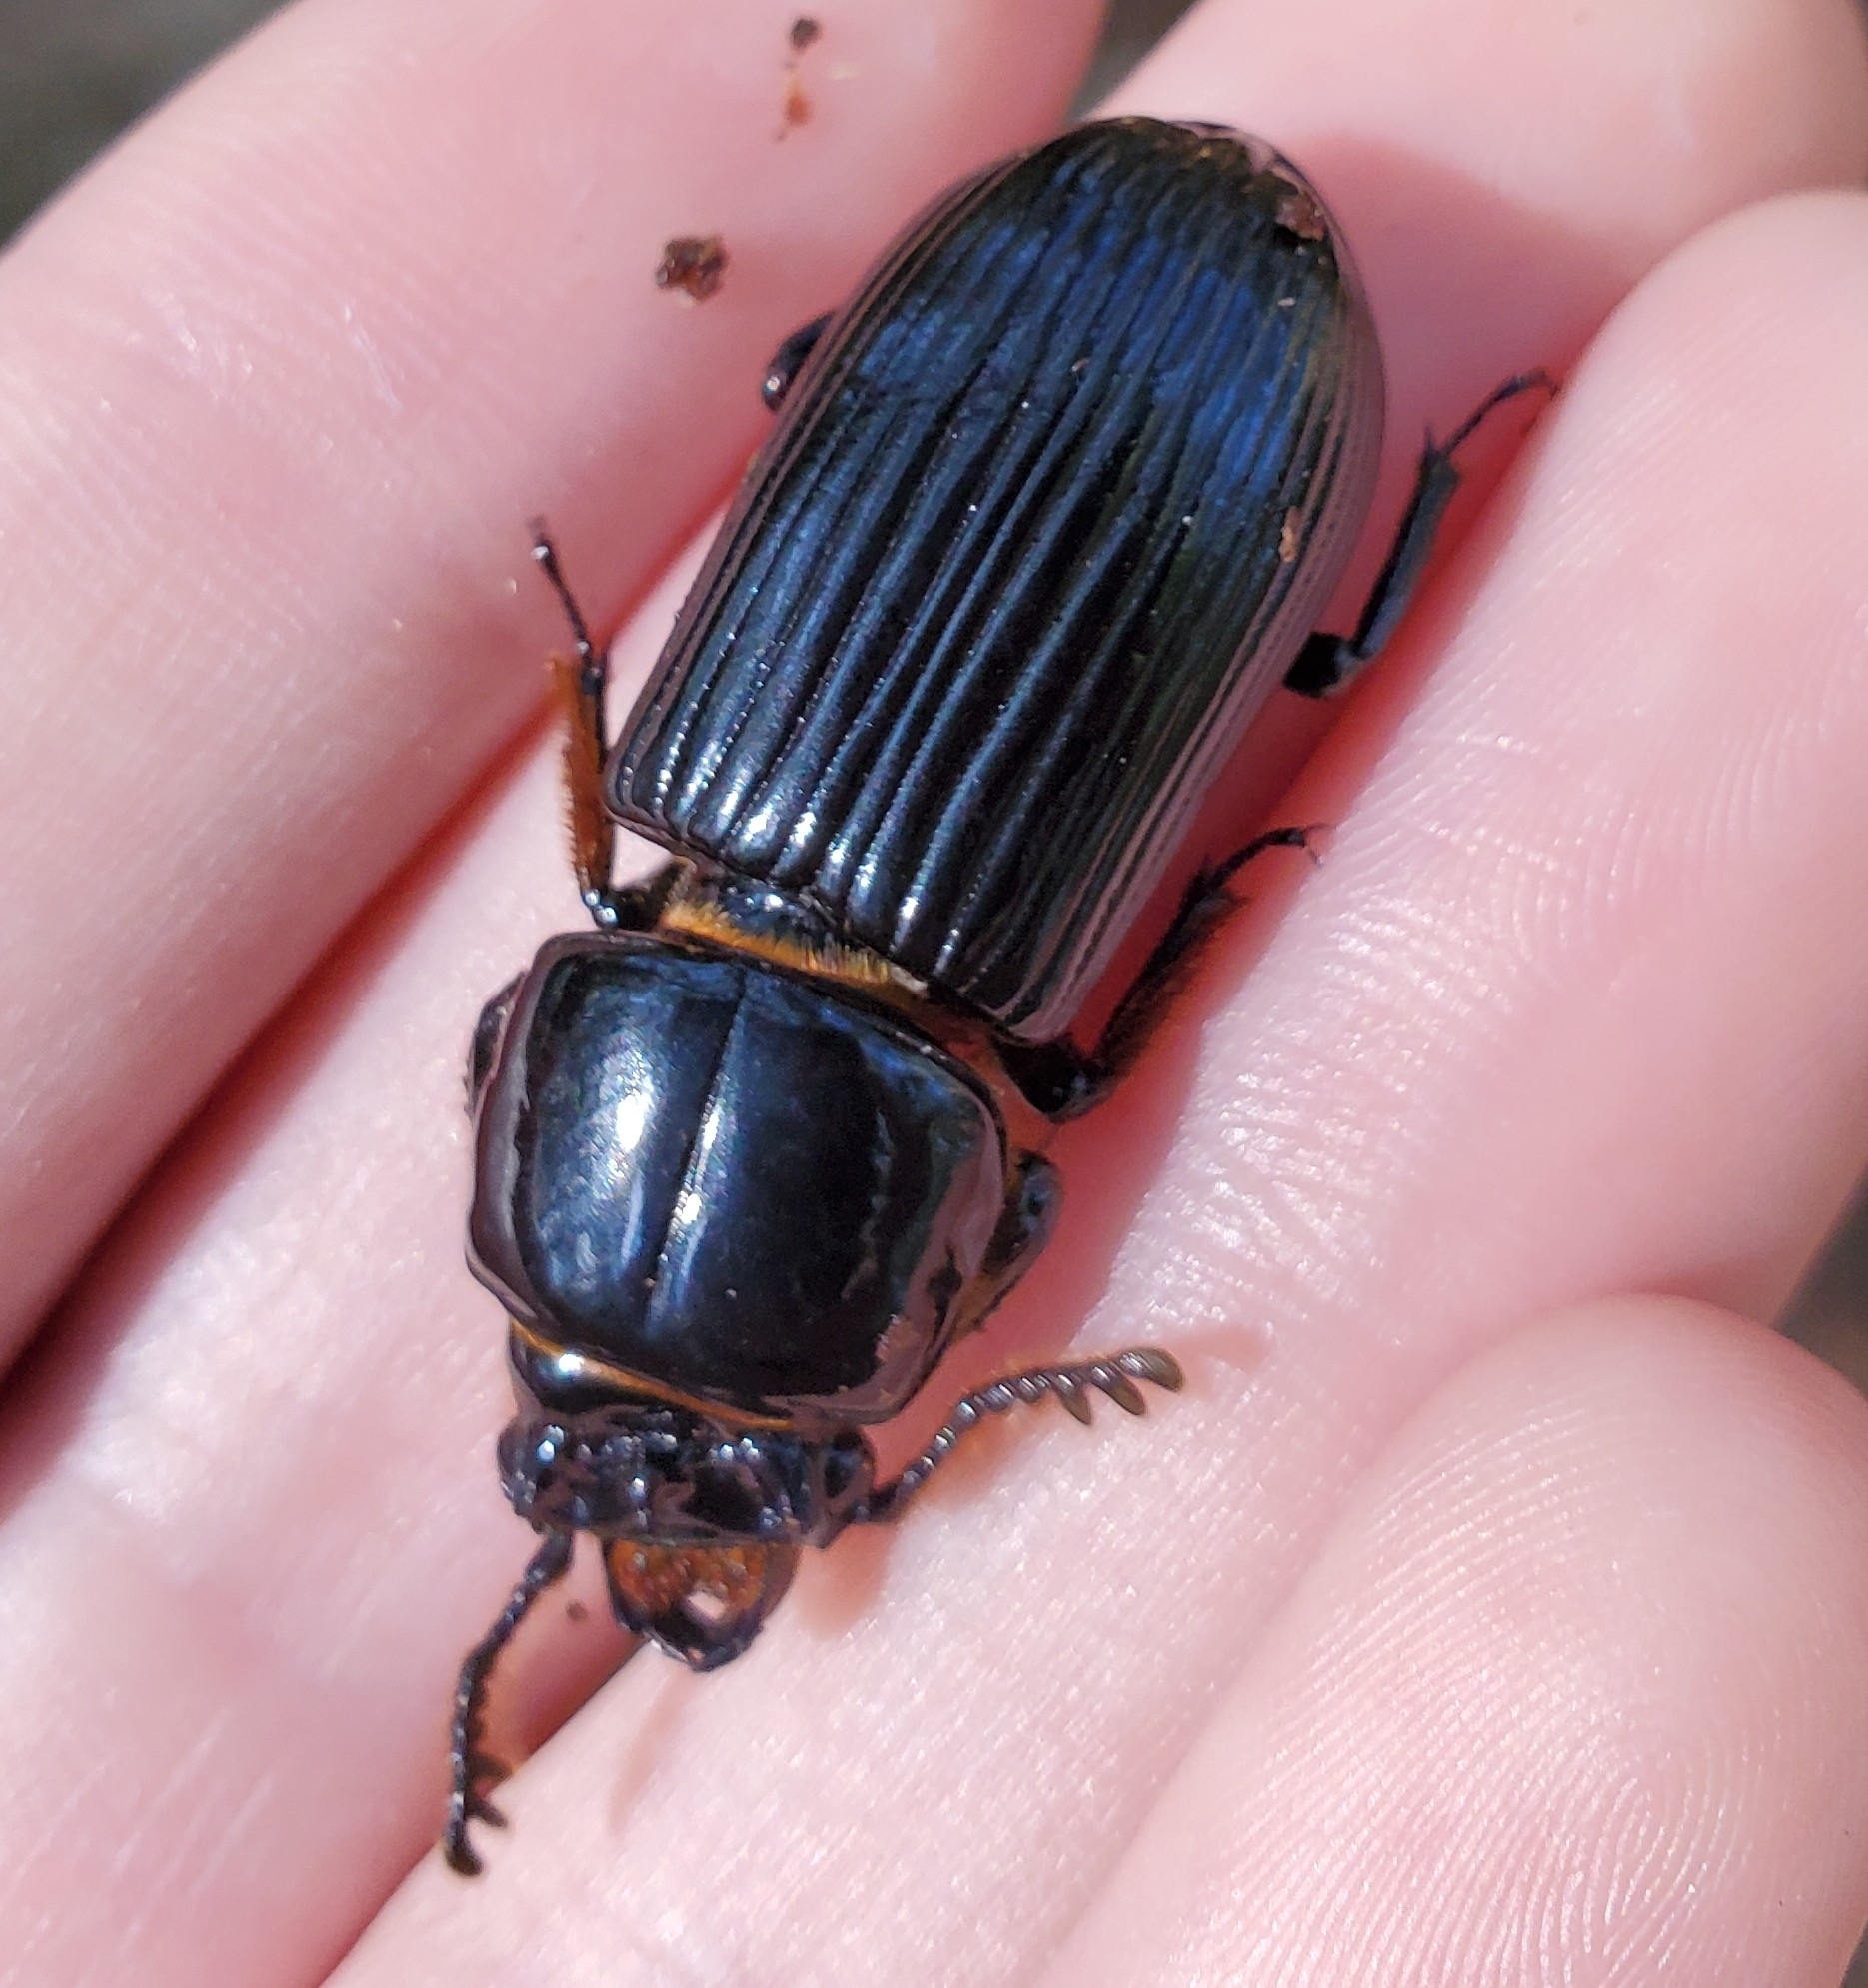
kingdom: Animalia
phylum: Arthropoda
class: Insecta
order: Coleoptera
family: Passalidae
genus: Odontotaenius
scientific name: Odontotaenius disjunctus
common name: Patent leather beetle
